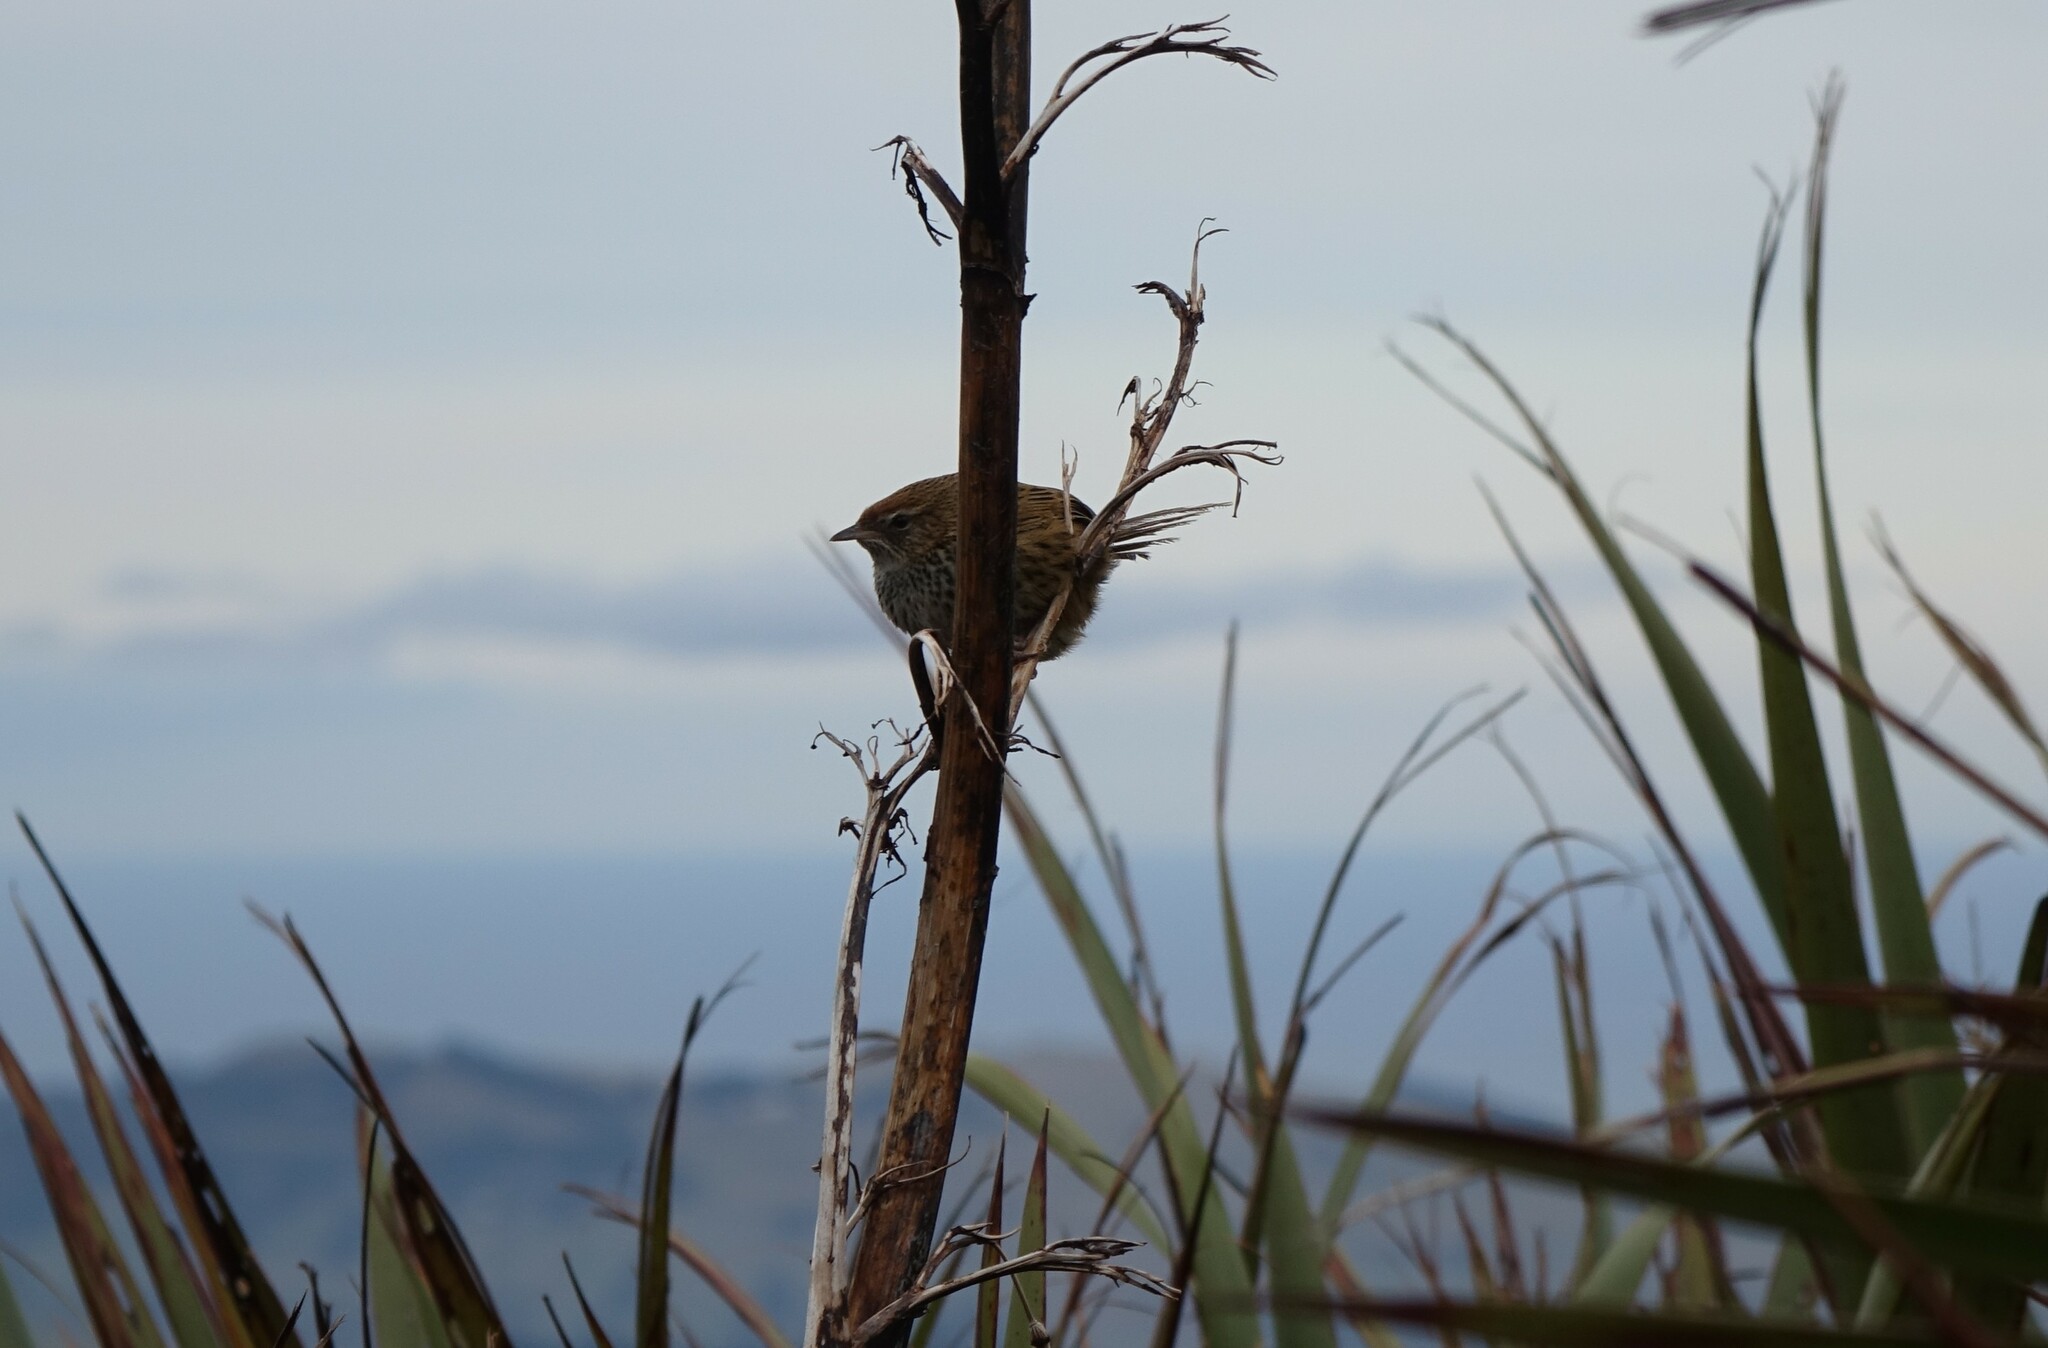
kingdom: Animalia
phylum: Chordata
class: Aves
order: Passeriformes
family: Locustellidae
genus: Poodytes
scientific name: Poodytes punctatus
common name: New zealand fernbird
